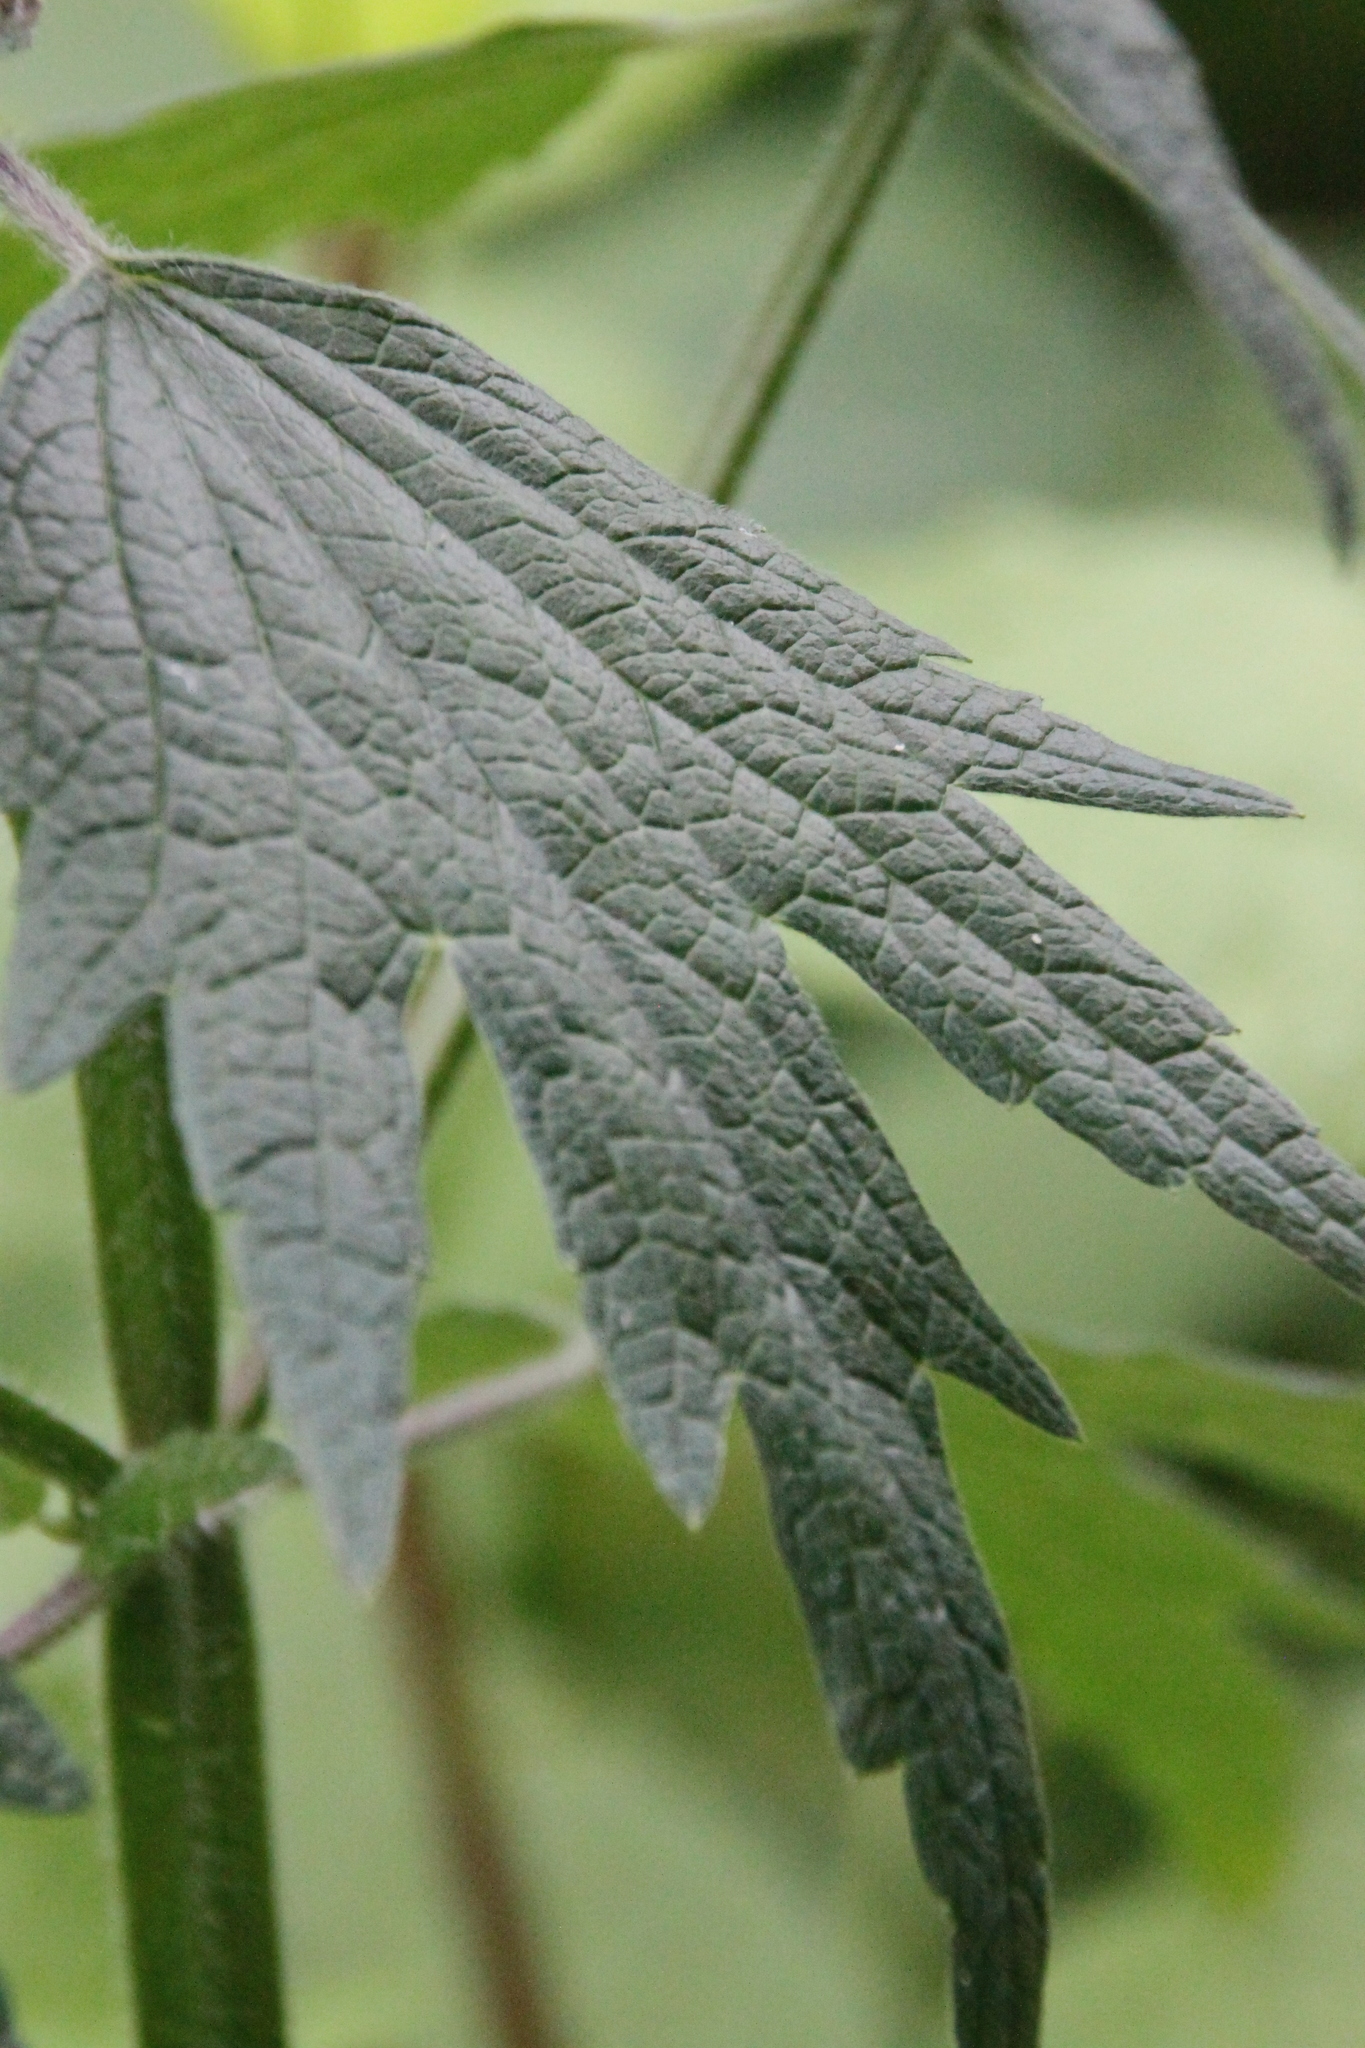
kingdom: Plantae
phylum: Tracheophyta
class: Magnoliopsida
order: Lamiales
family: Lamiaceae
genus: Leonurus
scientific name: Leonurus quinquelobatus
